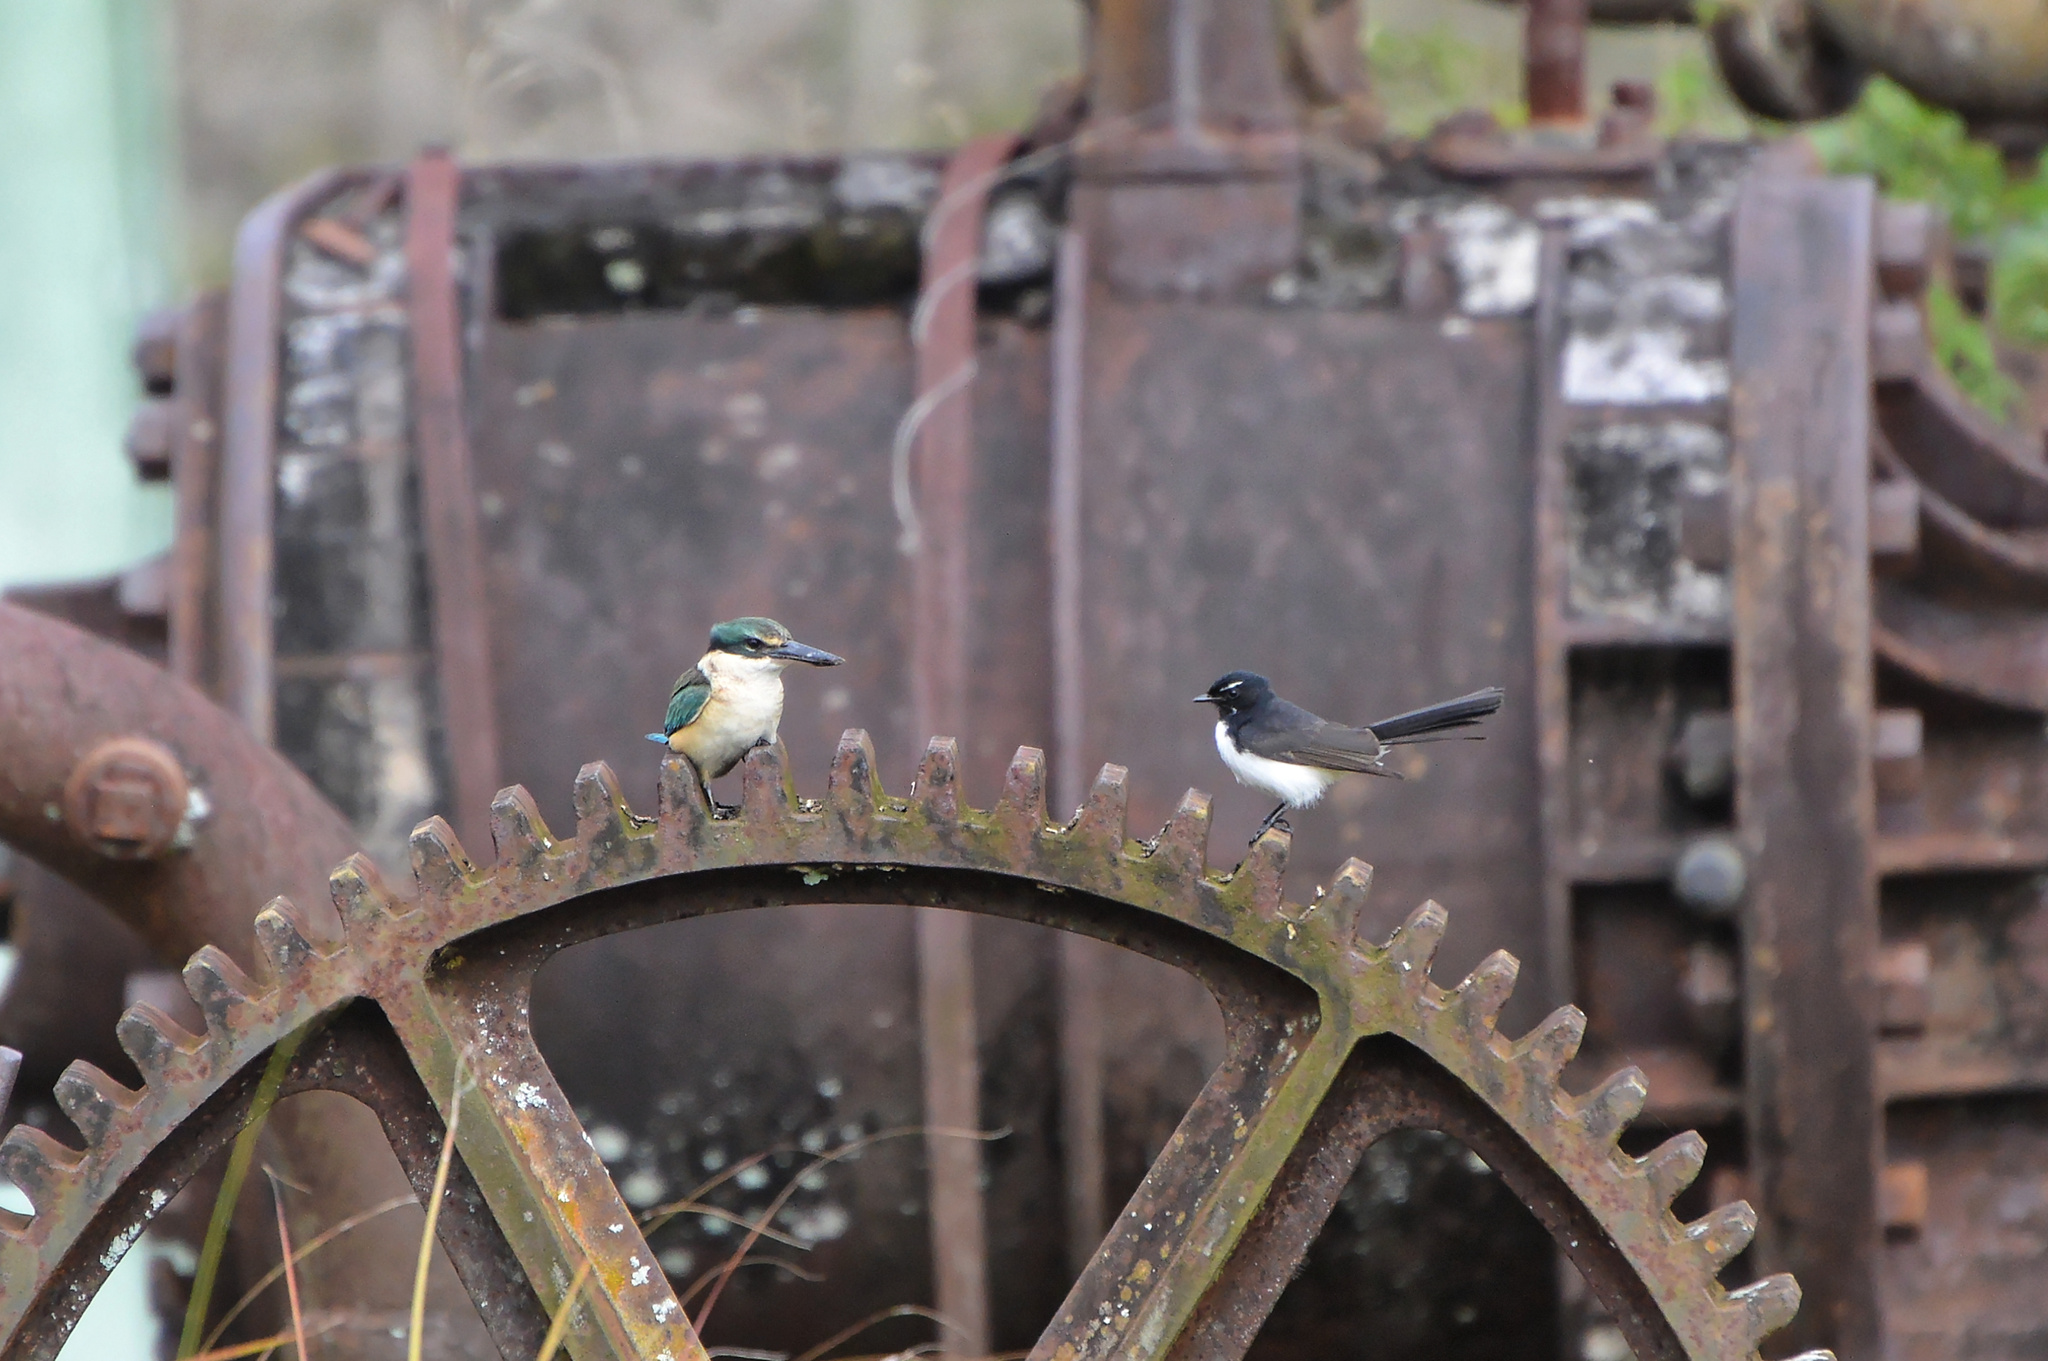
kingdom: Animalia
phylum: Chordata
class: Aves
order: Coraciiformes
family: Alcedinidae
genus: Todiramphus
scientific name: Todiramphus sanctus
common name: Sacred kingfisher
